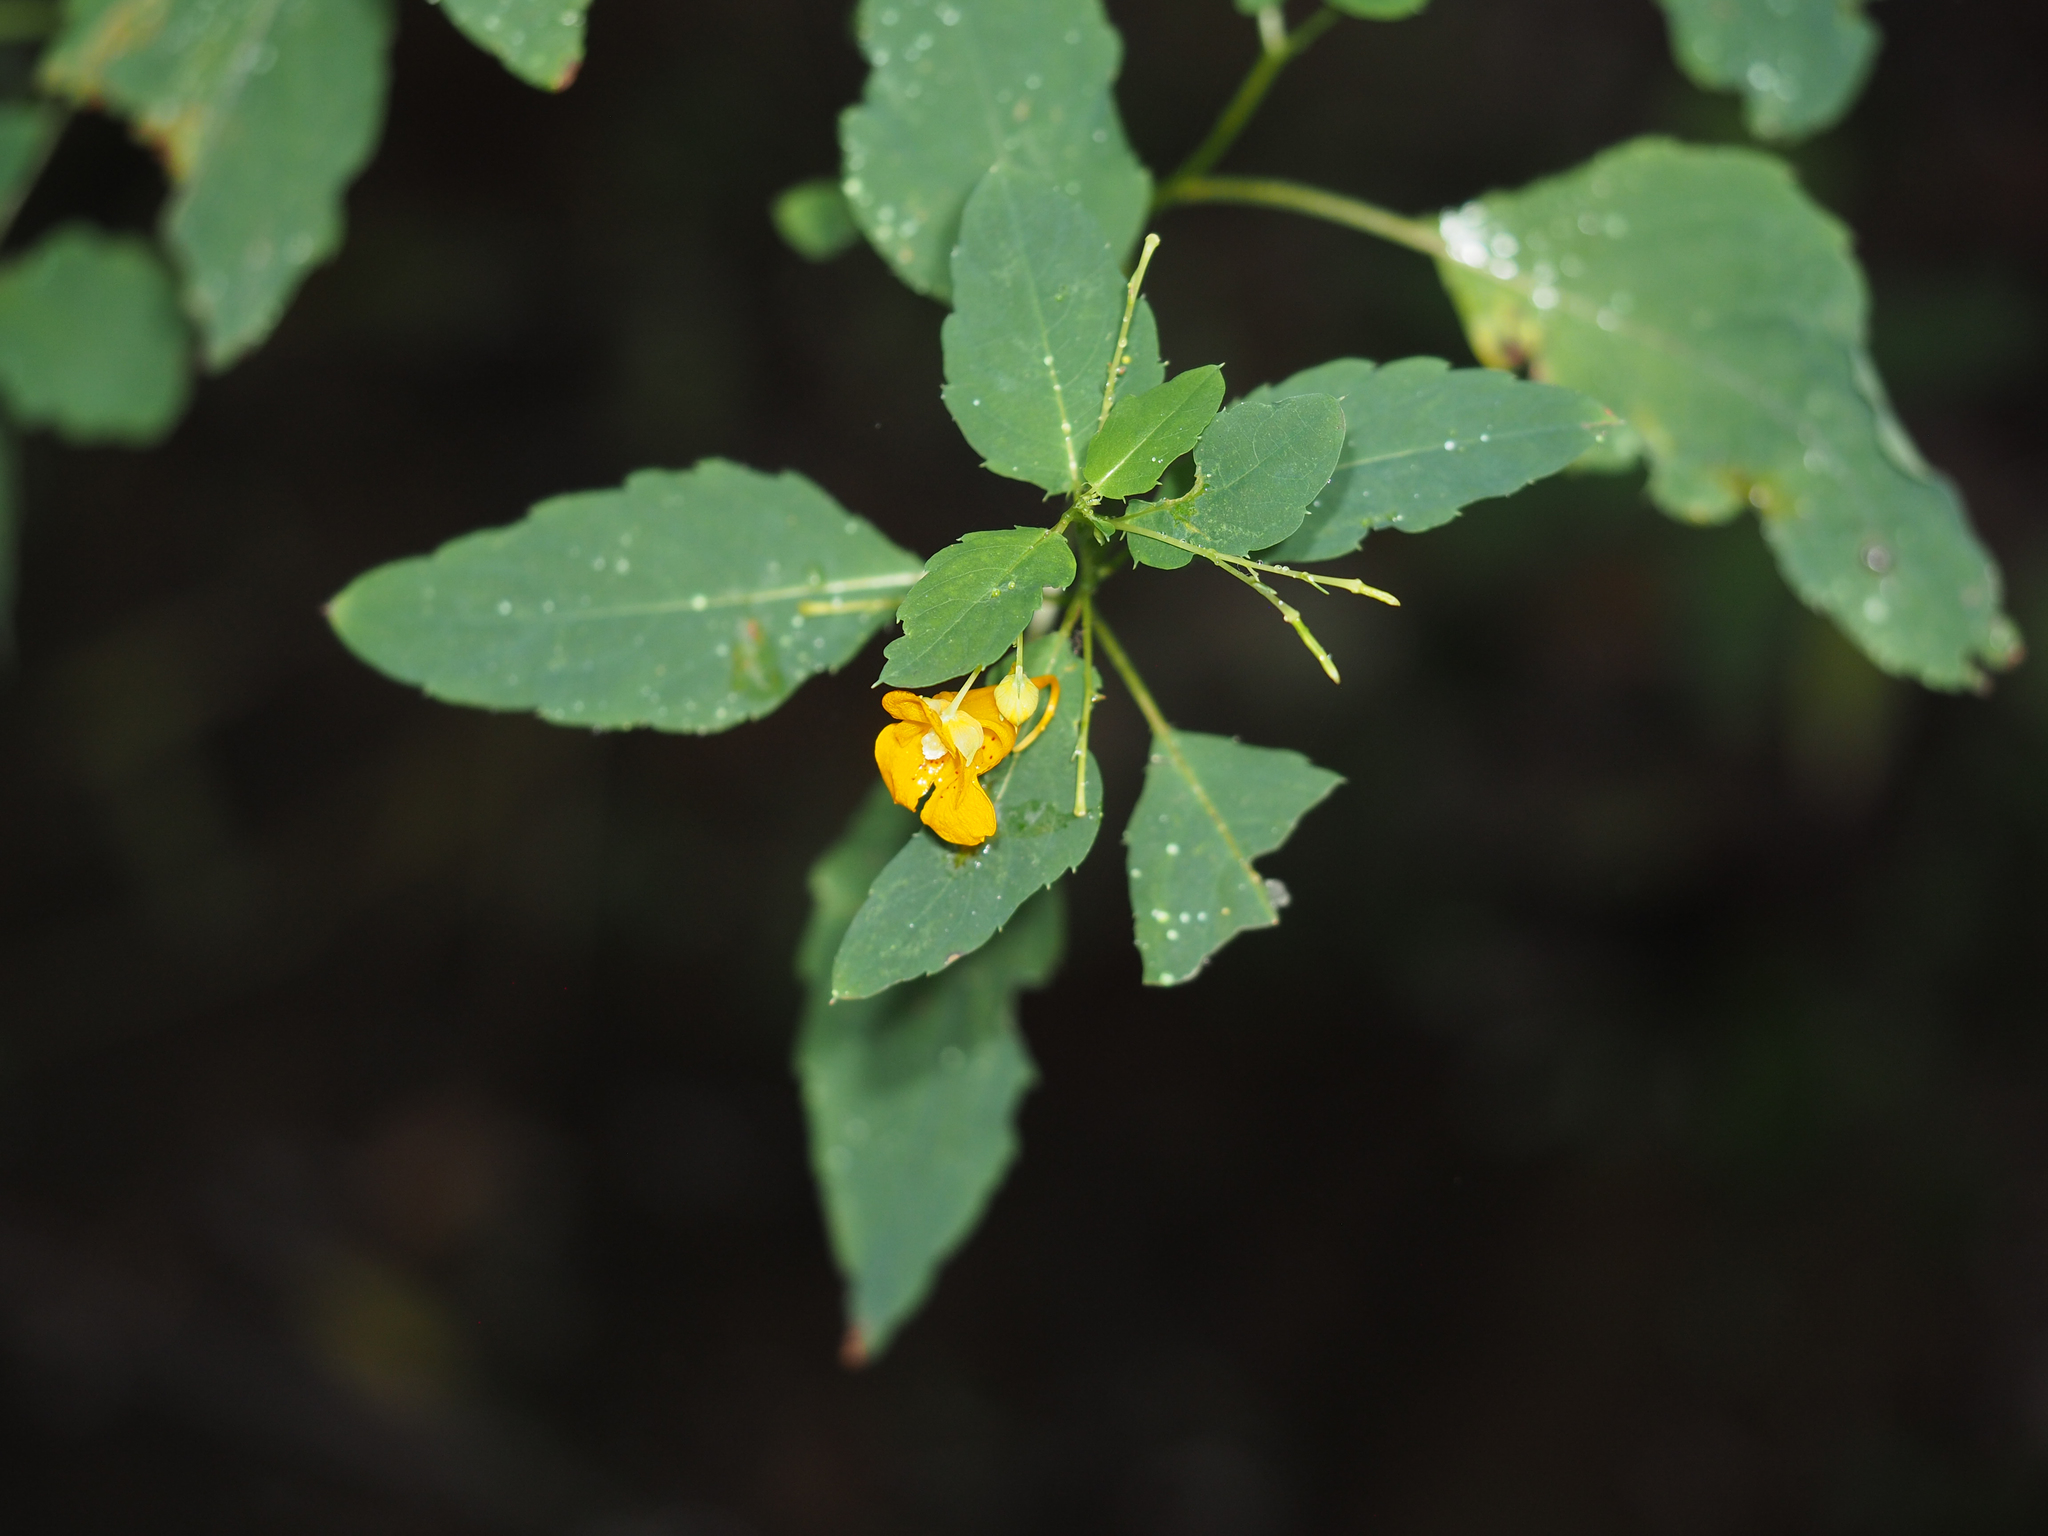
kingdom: Plantae
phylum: Tracheophyta
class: Magnoliopsida
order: Ericales
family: Balsaminaceae
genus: Impatiens
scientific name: Impatiens capensis
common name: Orange balsam
